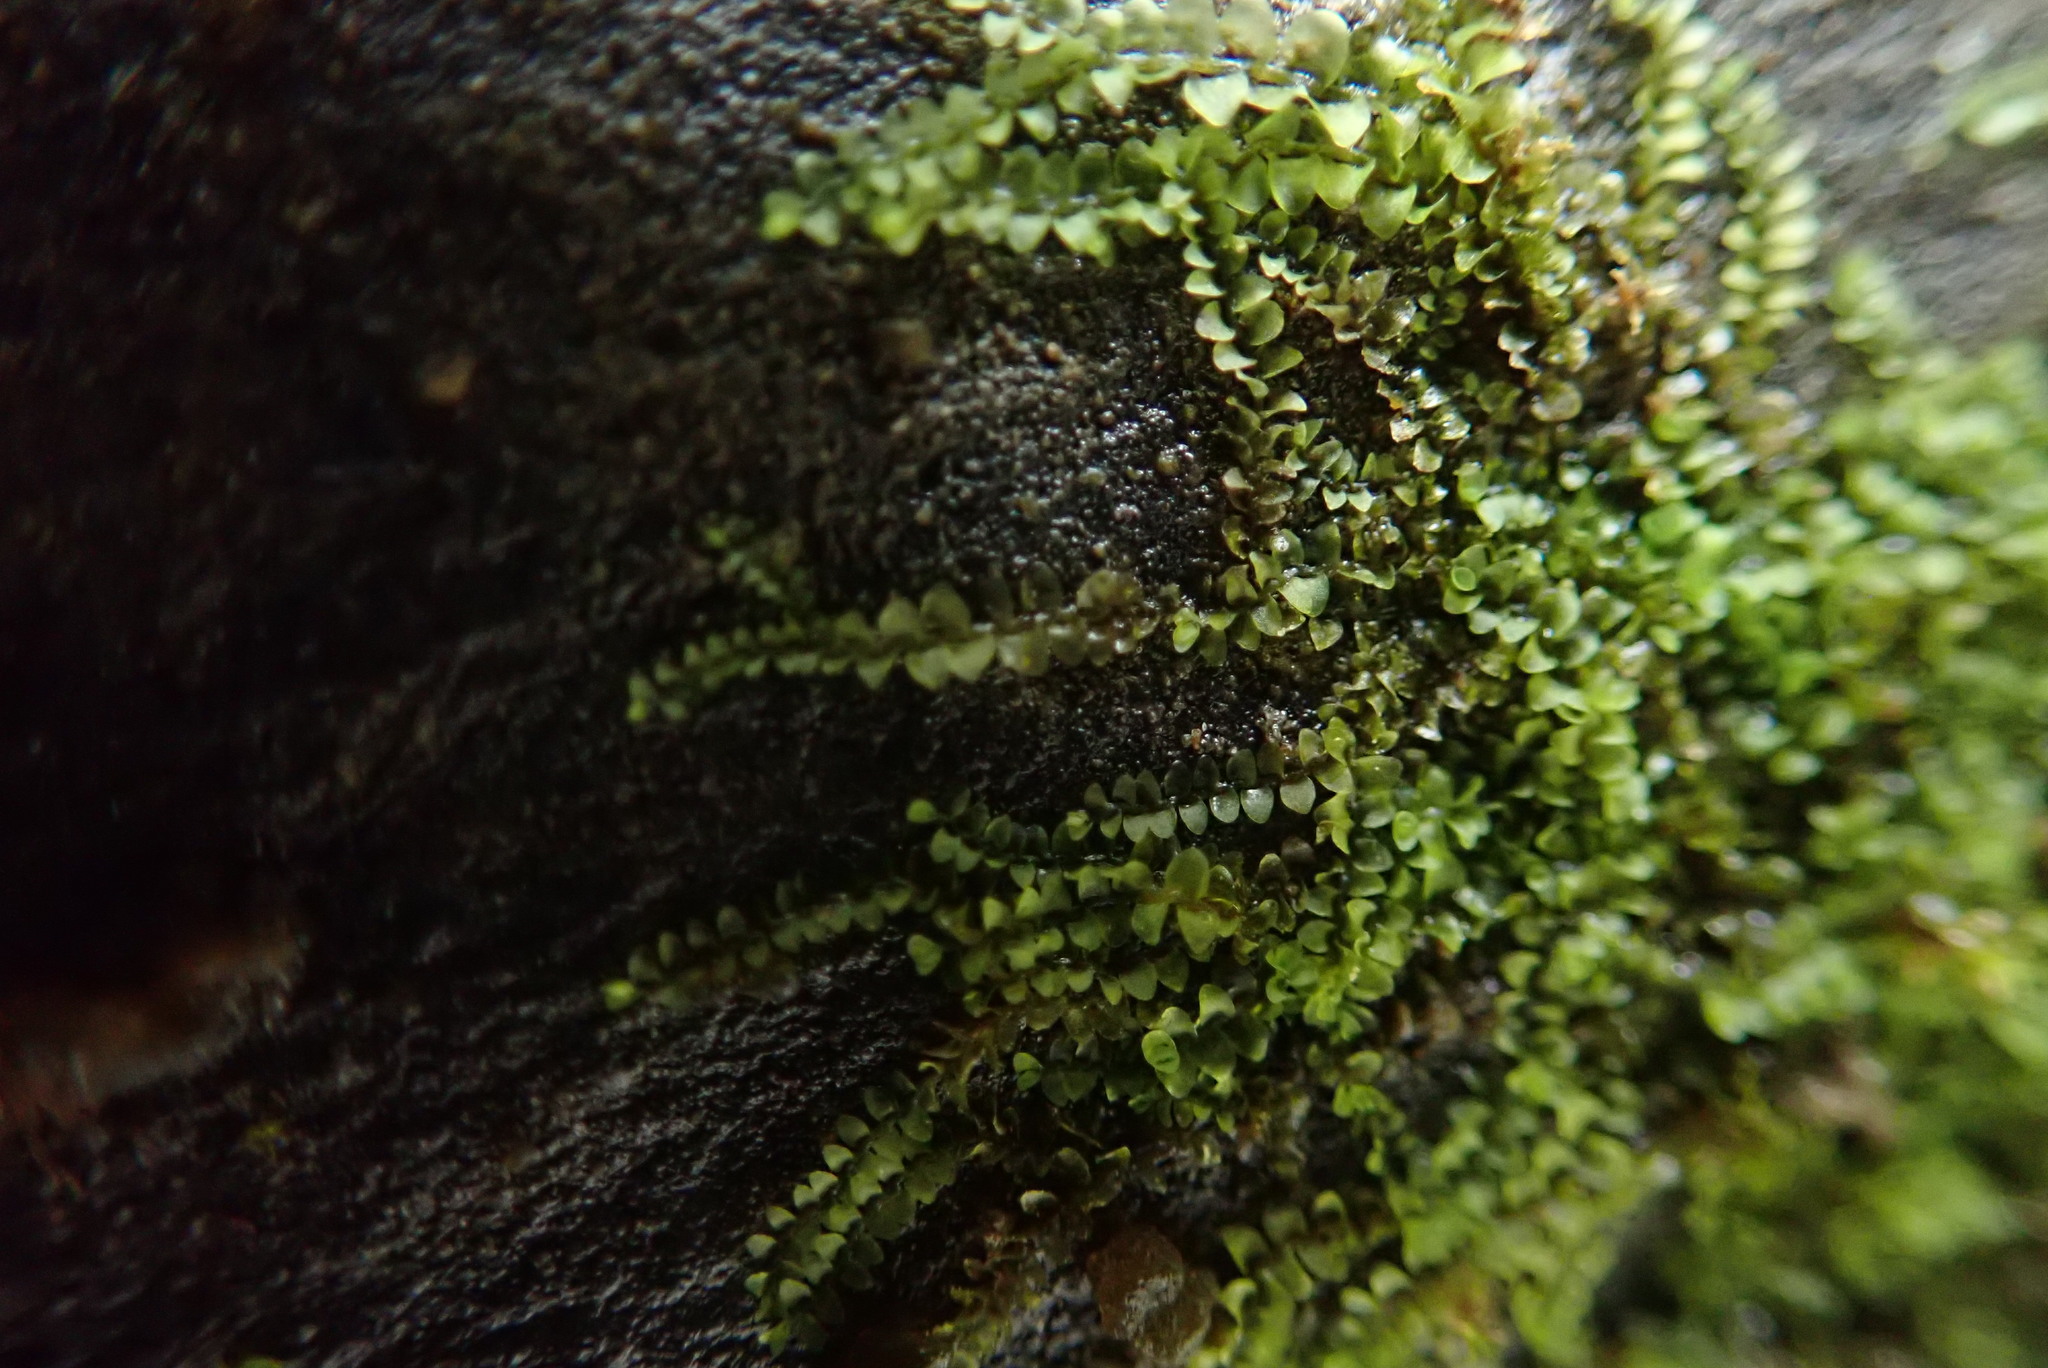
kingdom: Plantae
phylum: Marchantiophyta
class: Jungermanniopsida
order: Jungermanniales
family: Lophocoleaceae
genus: Lophocolea
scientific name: Lophocolea heterophylla
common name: Variable-leaved crestwort
